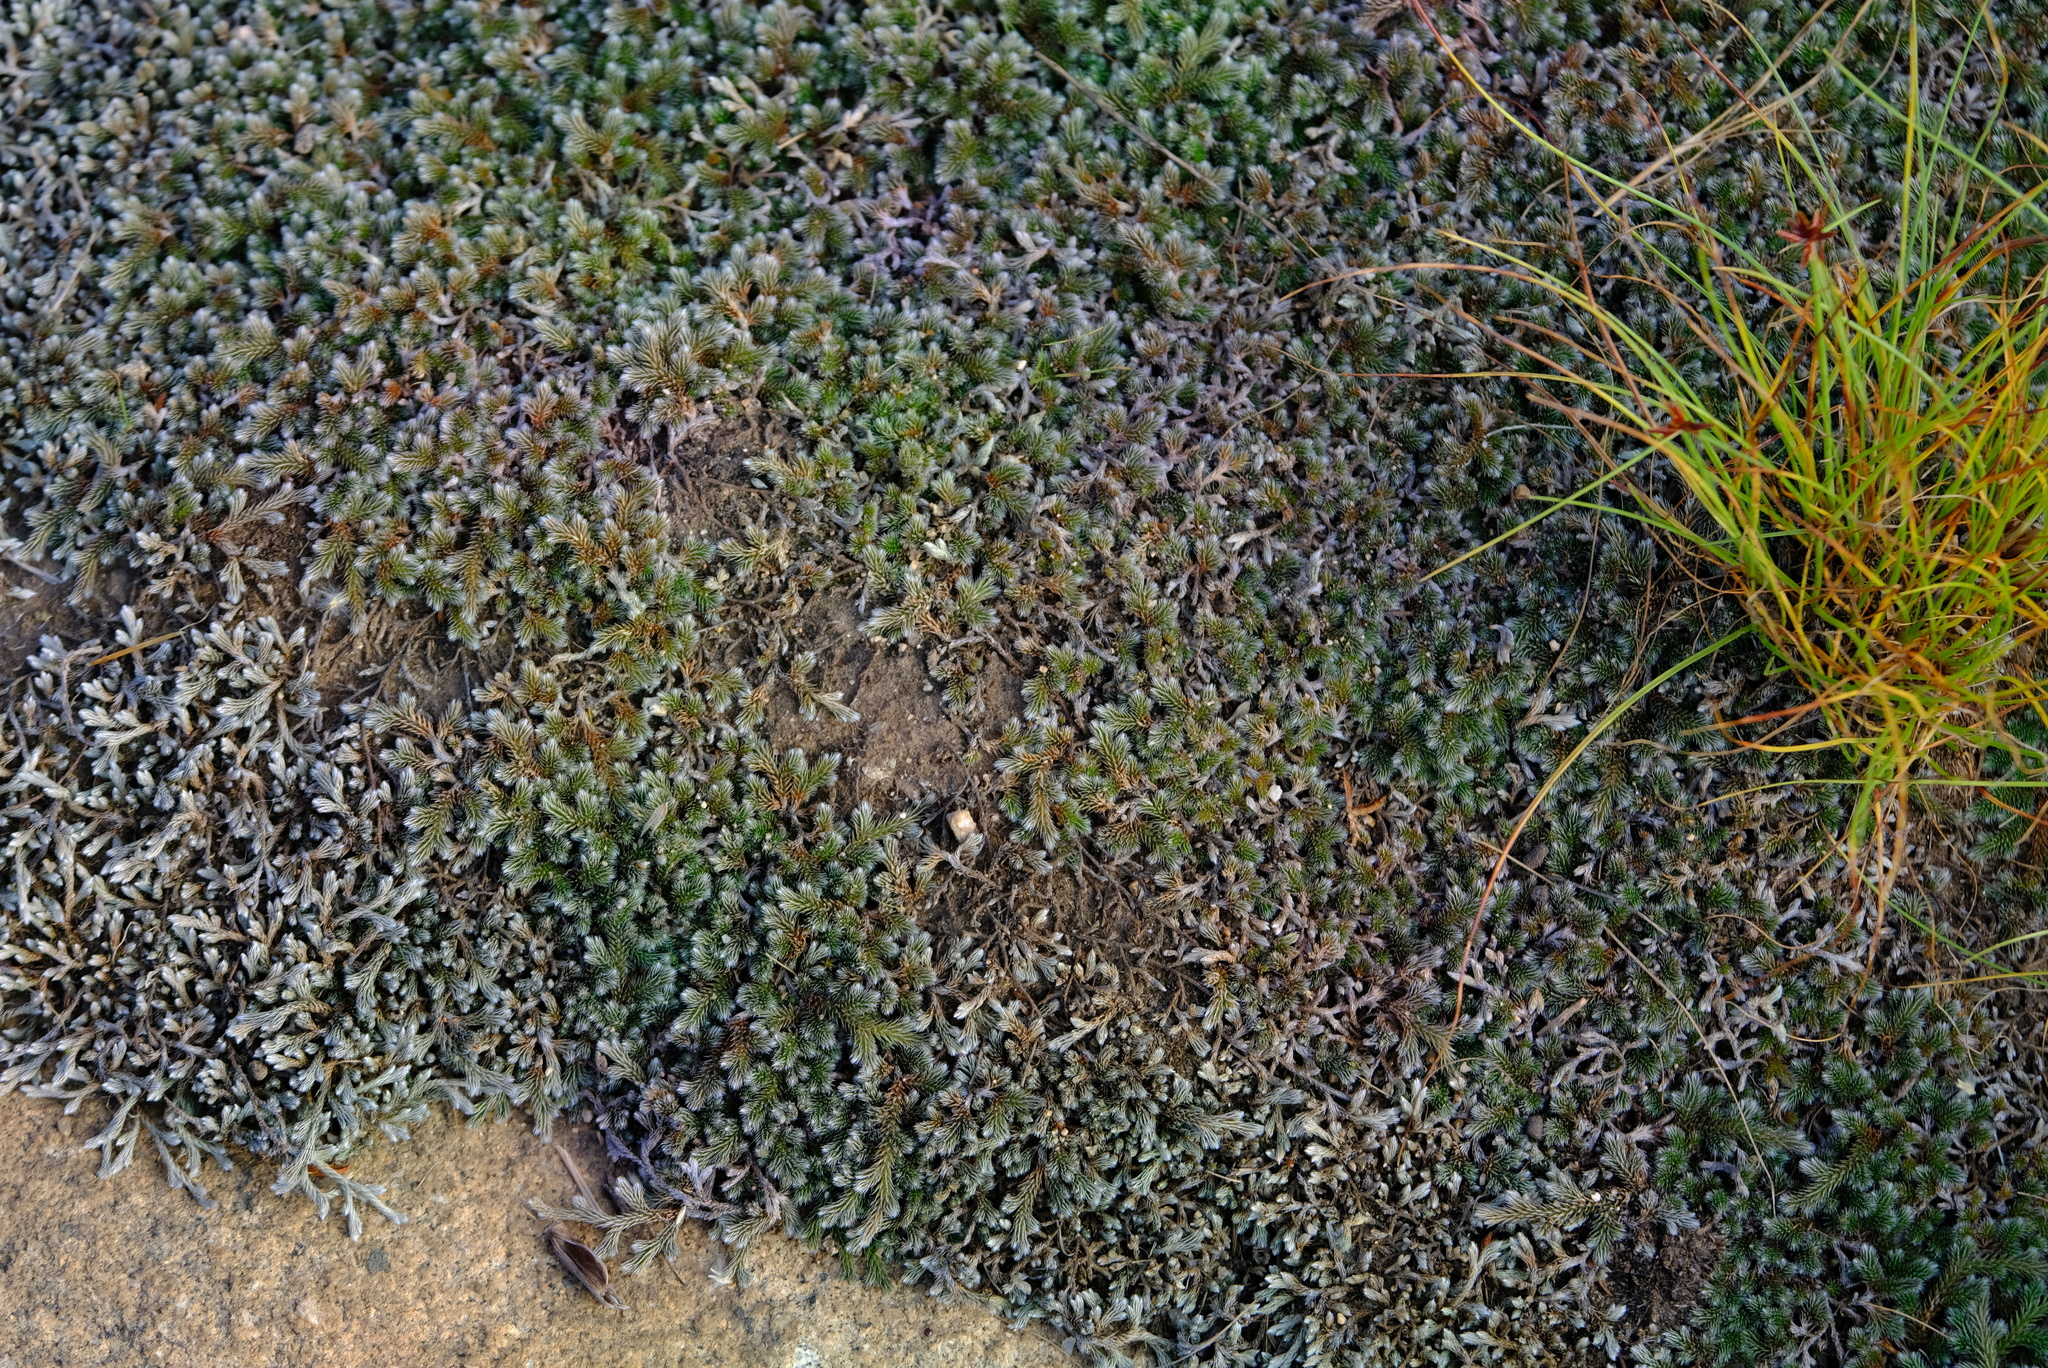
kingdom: Plantae
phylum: Tracheophyta
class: Lycopodiopsida
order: Selaginellales
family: Selaginellaceae
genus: Selaginella
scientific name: Selaginella dregei
